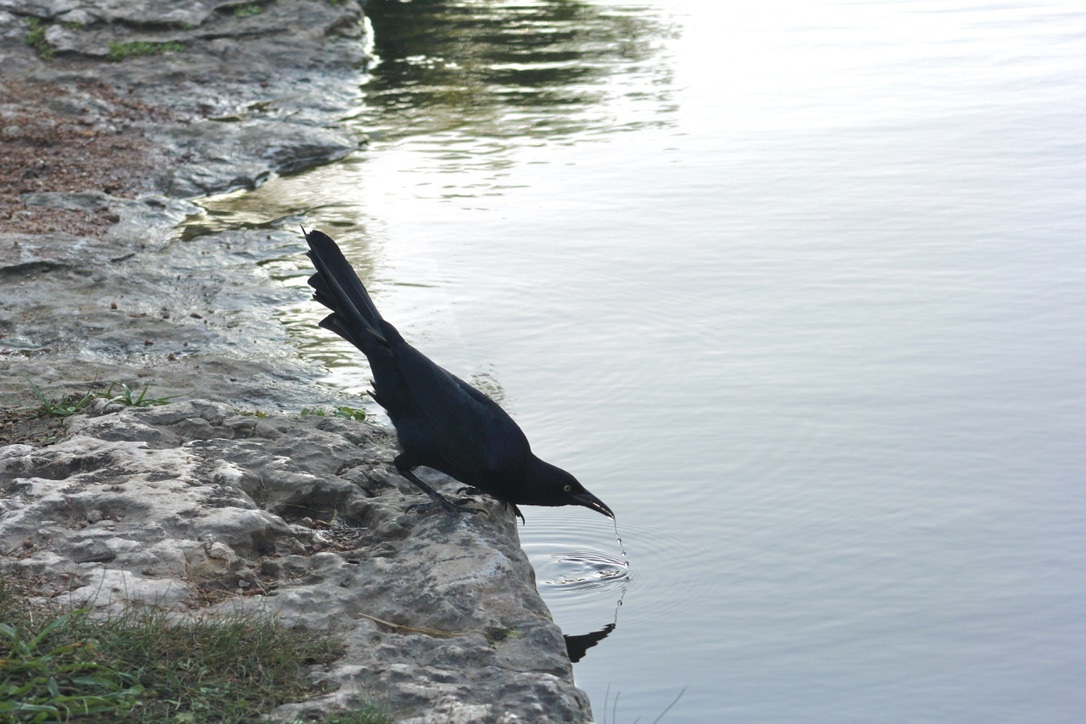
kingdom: Animalia
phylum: Chordata
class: Aves
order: Passeriformes
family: Icteridae
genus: Quiscalus
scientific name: Quiscalus mexicanus
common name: Great-tailed grackle
